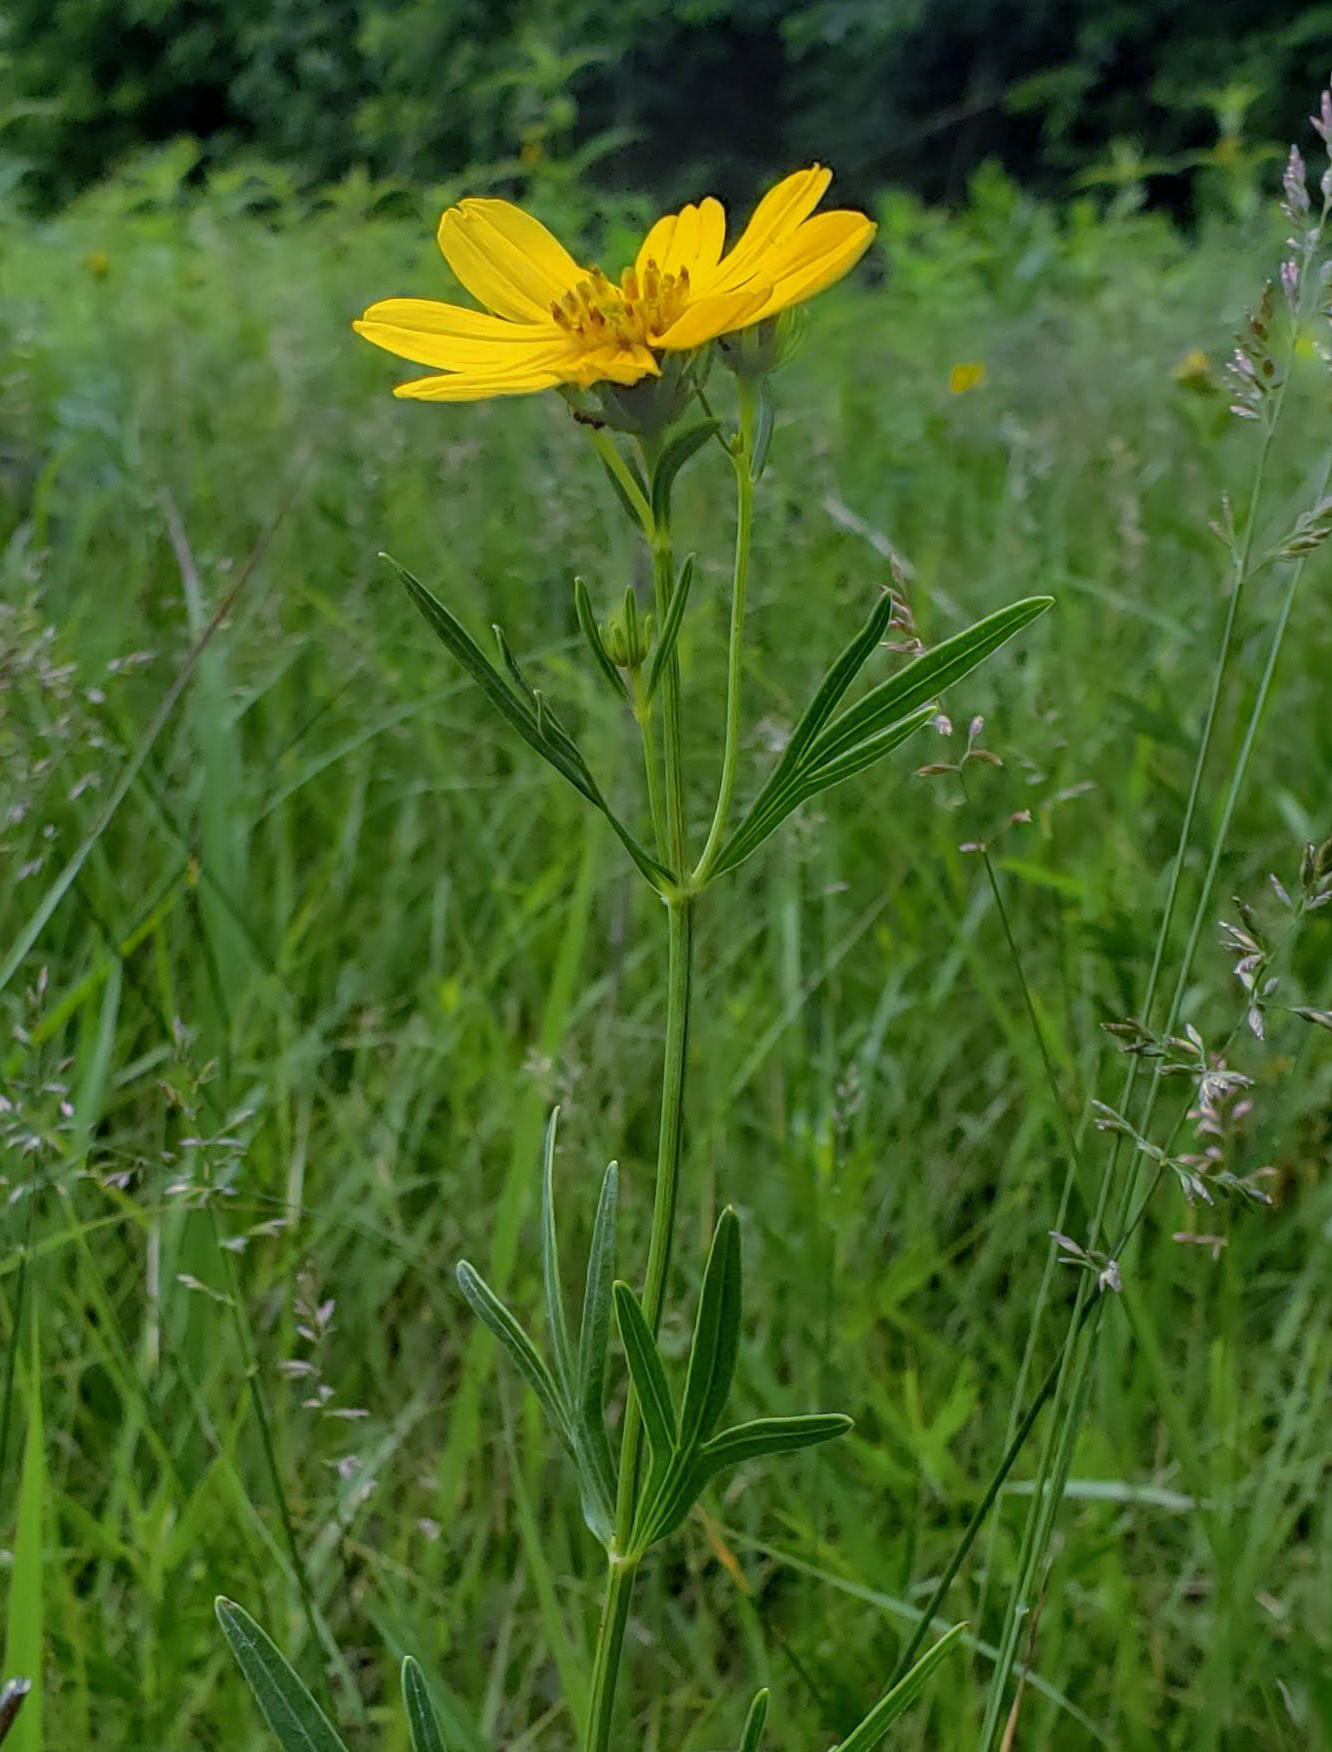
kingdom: Plantae
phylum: Tracheophyta
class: Magnoliopsida
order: Asterales
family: Asteraceae
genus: Coreopsis
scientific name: Coreopsis palmata
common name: Prairie coreopsis
